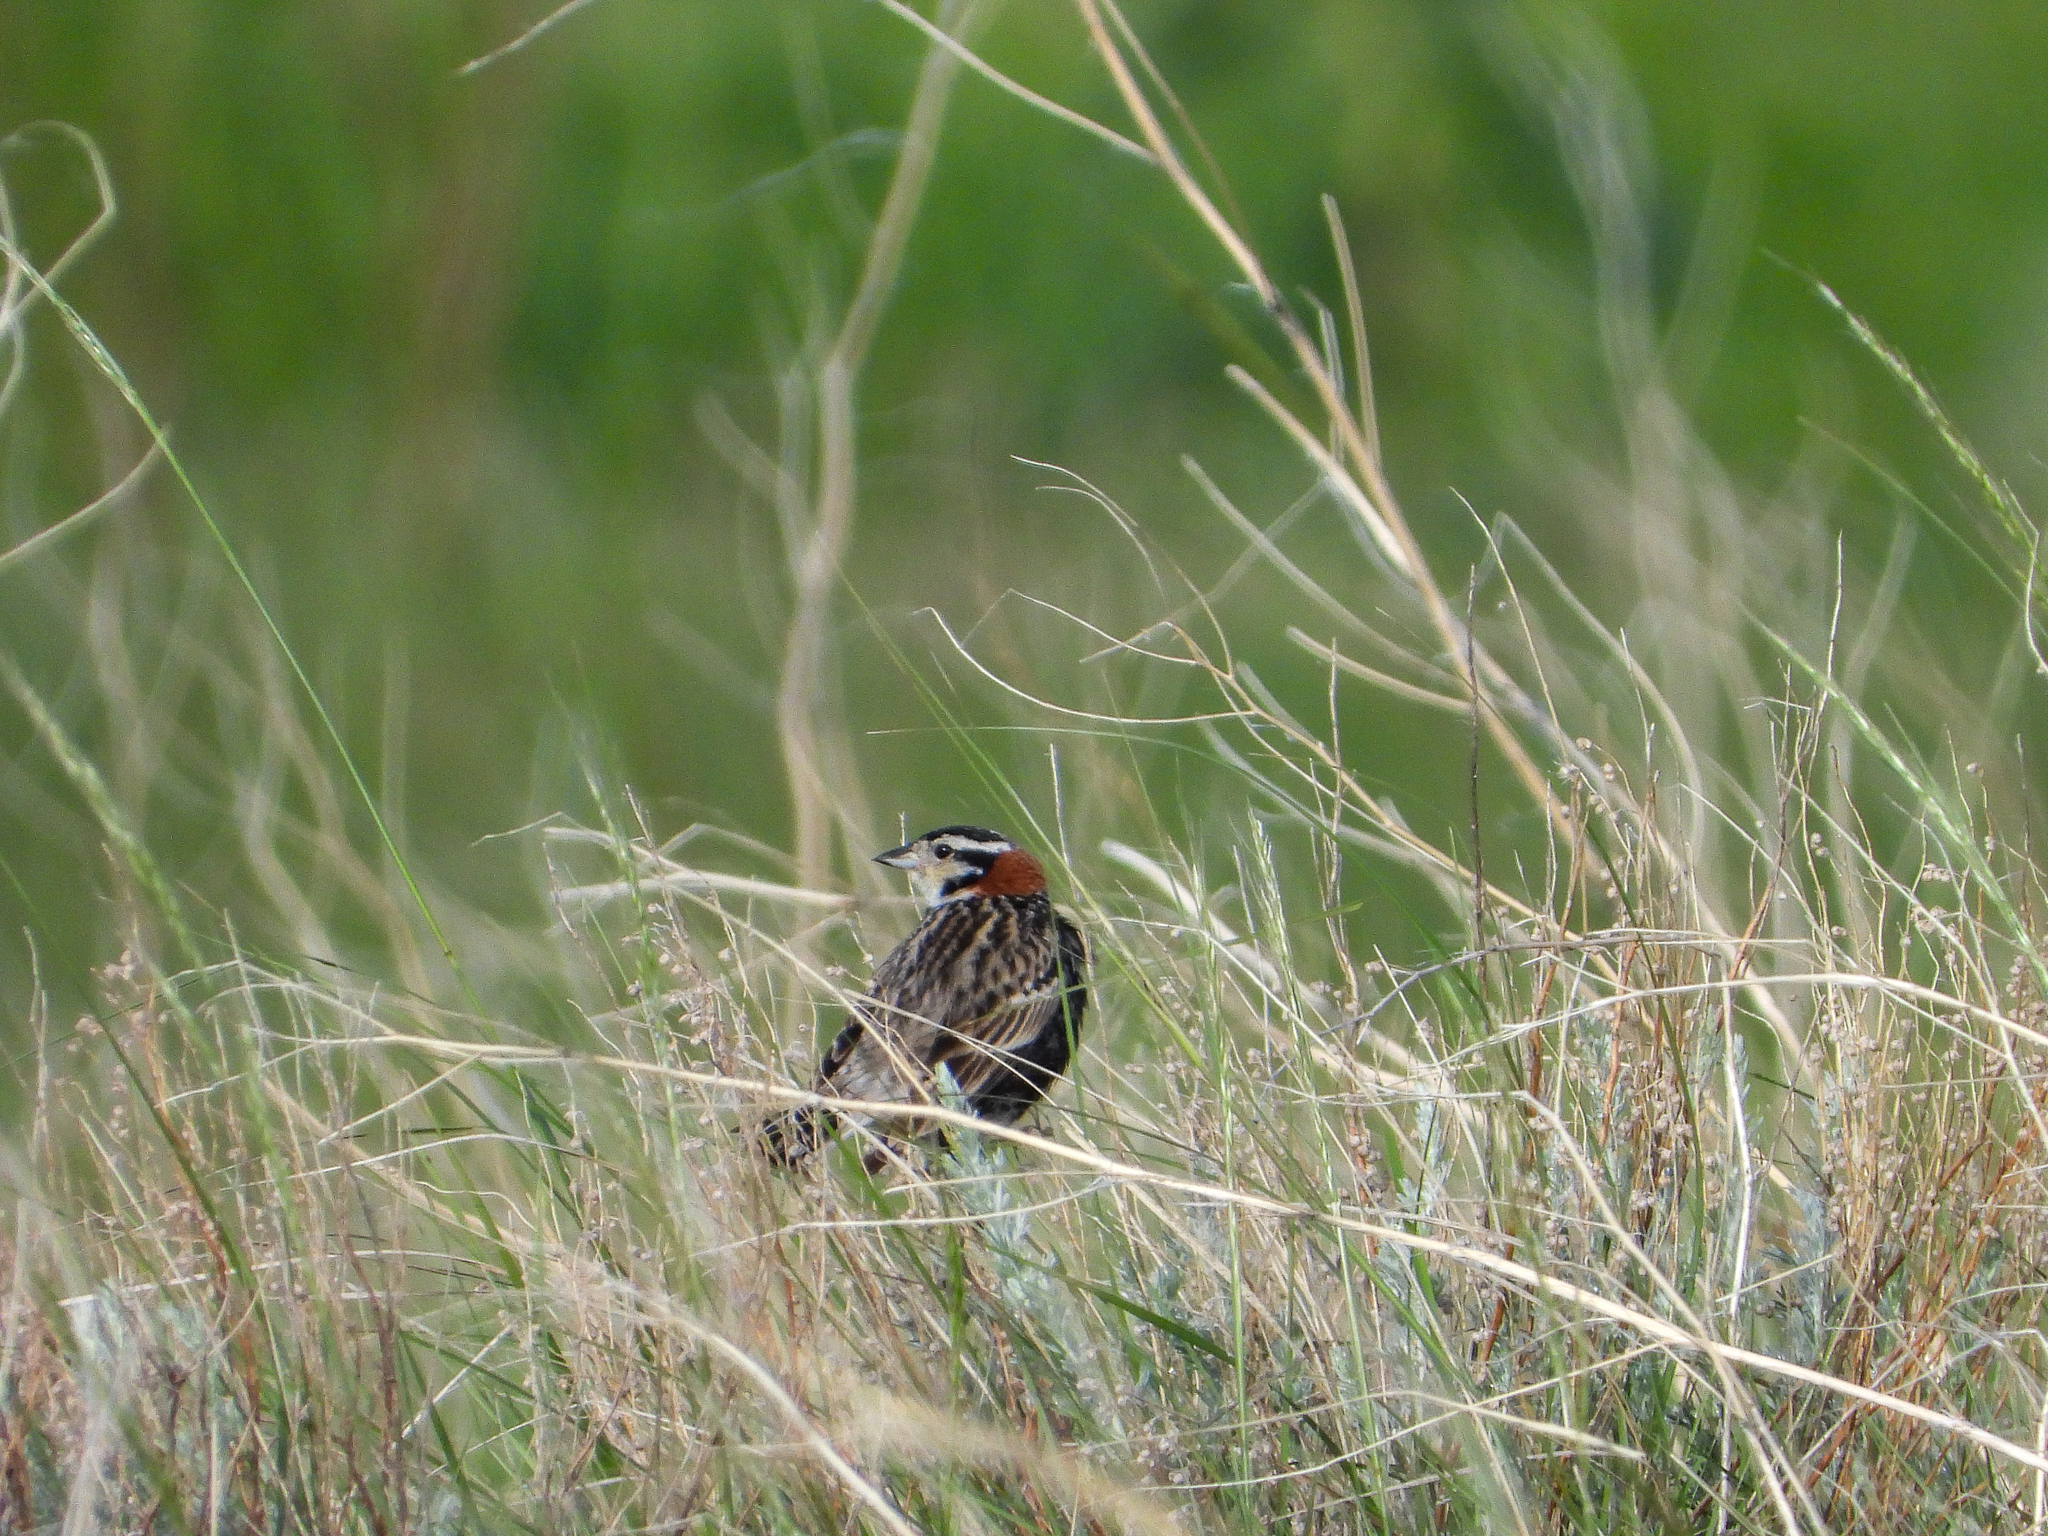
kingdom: Animalia
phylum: Chordata
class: Aves
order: Passeriformes
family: Calcariidae
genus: Calcarius
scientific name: Calcarius ornatus
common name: Chestnut-collared longspur
